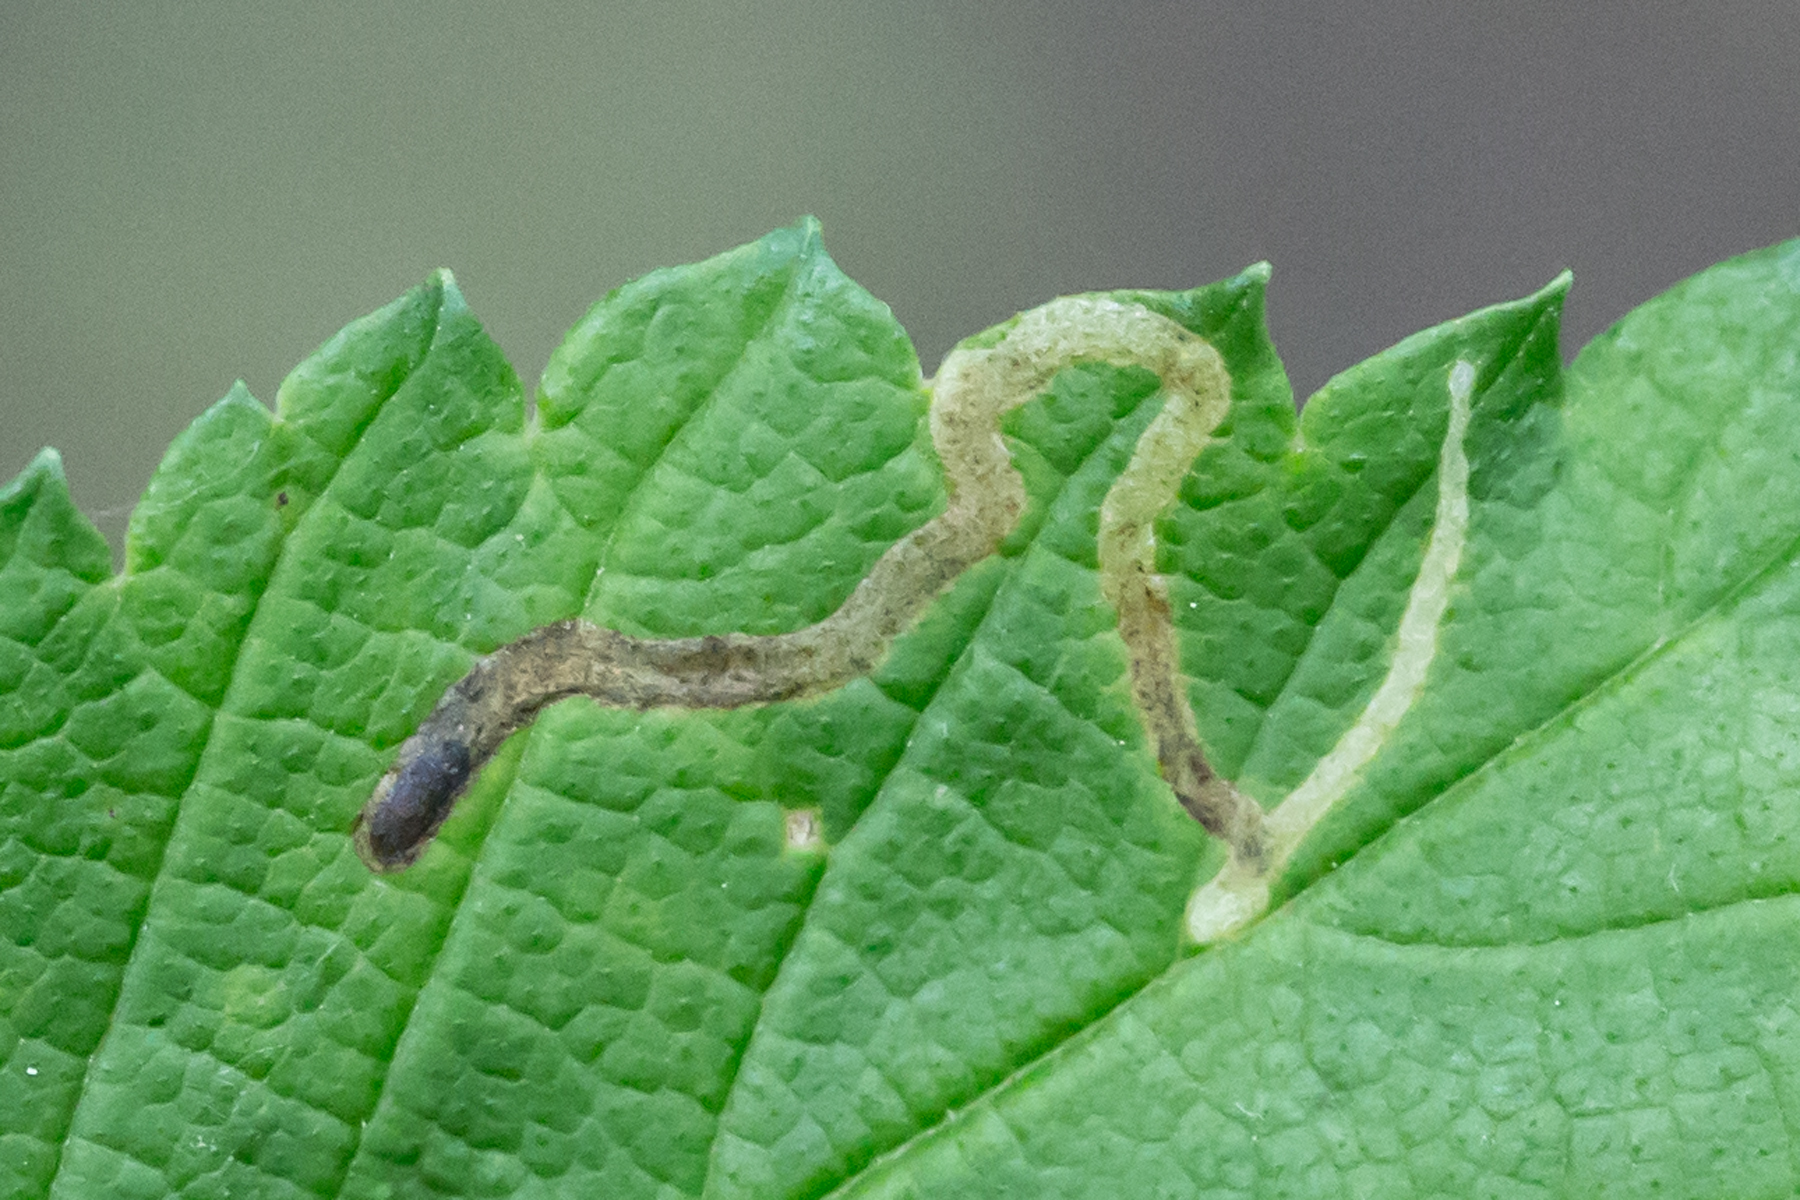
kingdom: Animalia
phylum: Arthropoda
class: Insecta
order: Diptera
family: Agromyzidae
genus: Agromyza
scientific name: Agromyza aristata
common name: Elm agromyzid leafminer
